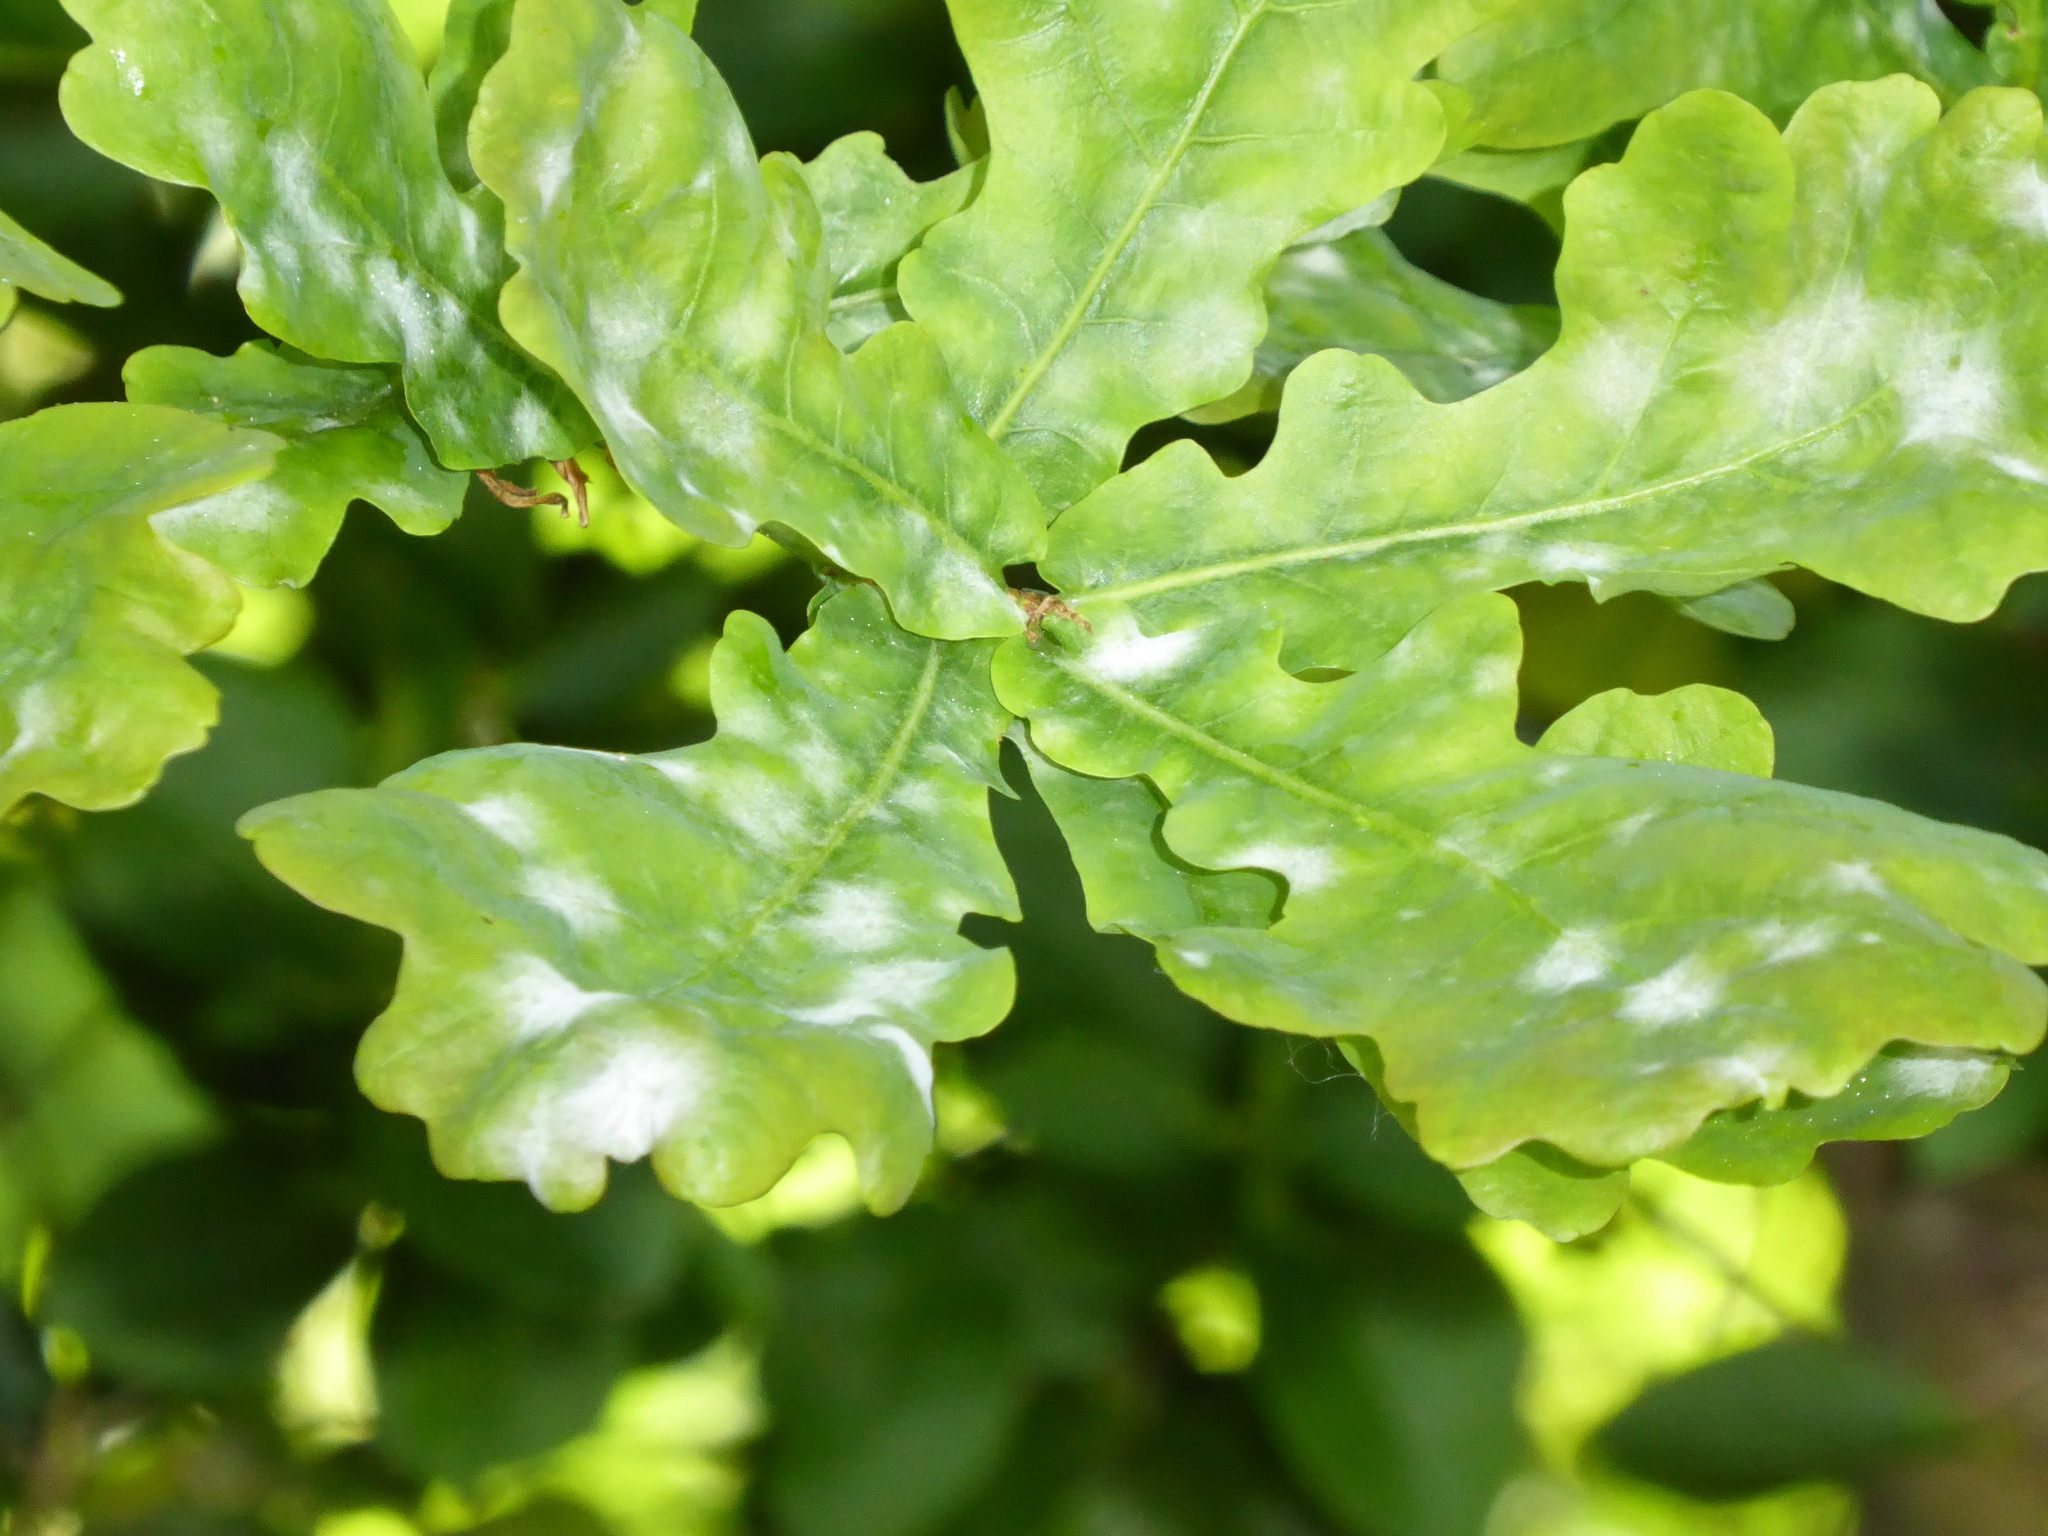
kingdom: Fungi
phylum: Ascomycota
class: Leotiomycetes
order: Helotiales
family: Erysiphaceae
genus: Erysiphe
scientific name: Erysiphe alphitoides
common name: Oak mildew
